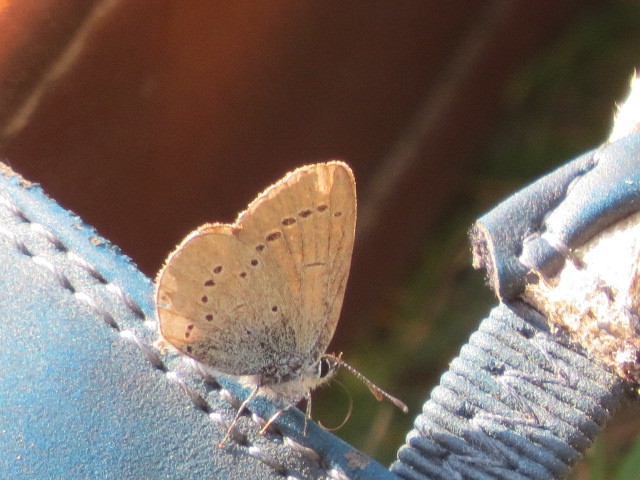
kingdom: Animalia
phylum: Arthropoda
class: Insecta
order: Lepidoptera
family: Lycaenidae
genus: Cupido
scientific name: Cupido minimus
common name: Small blue
